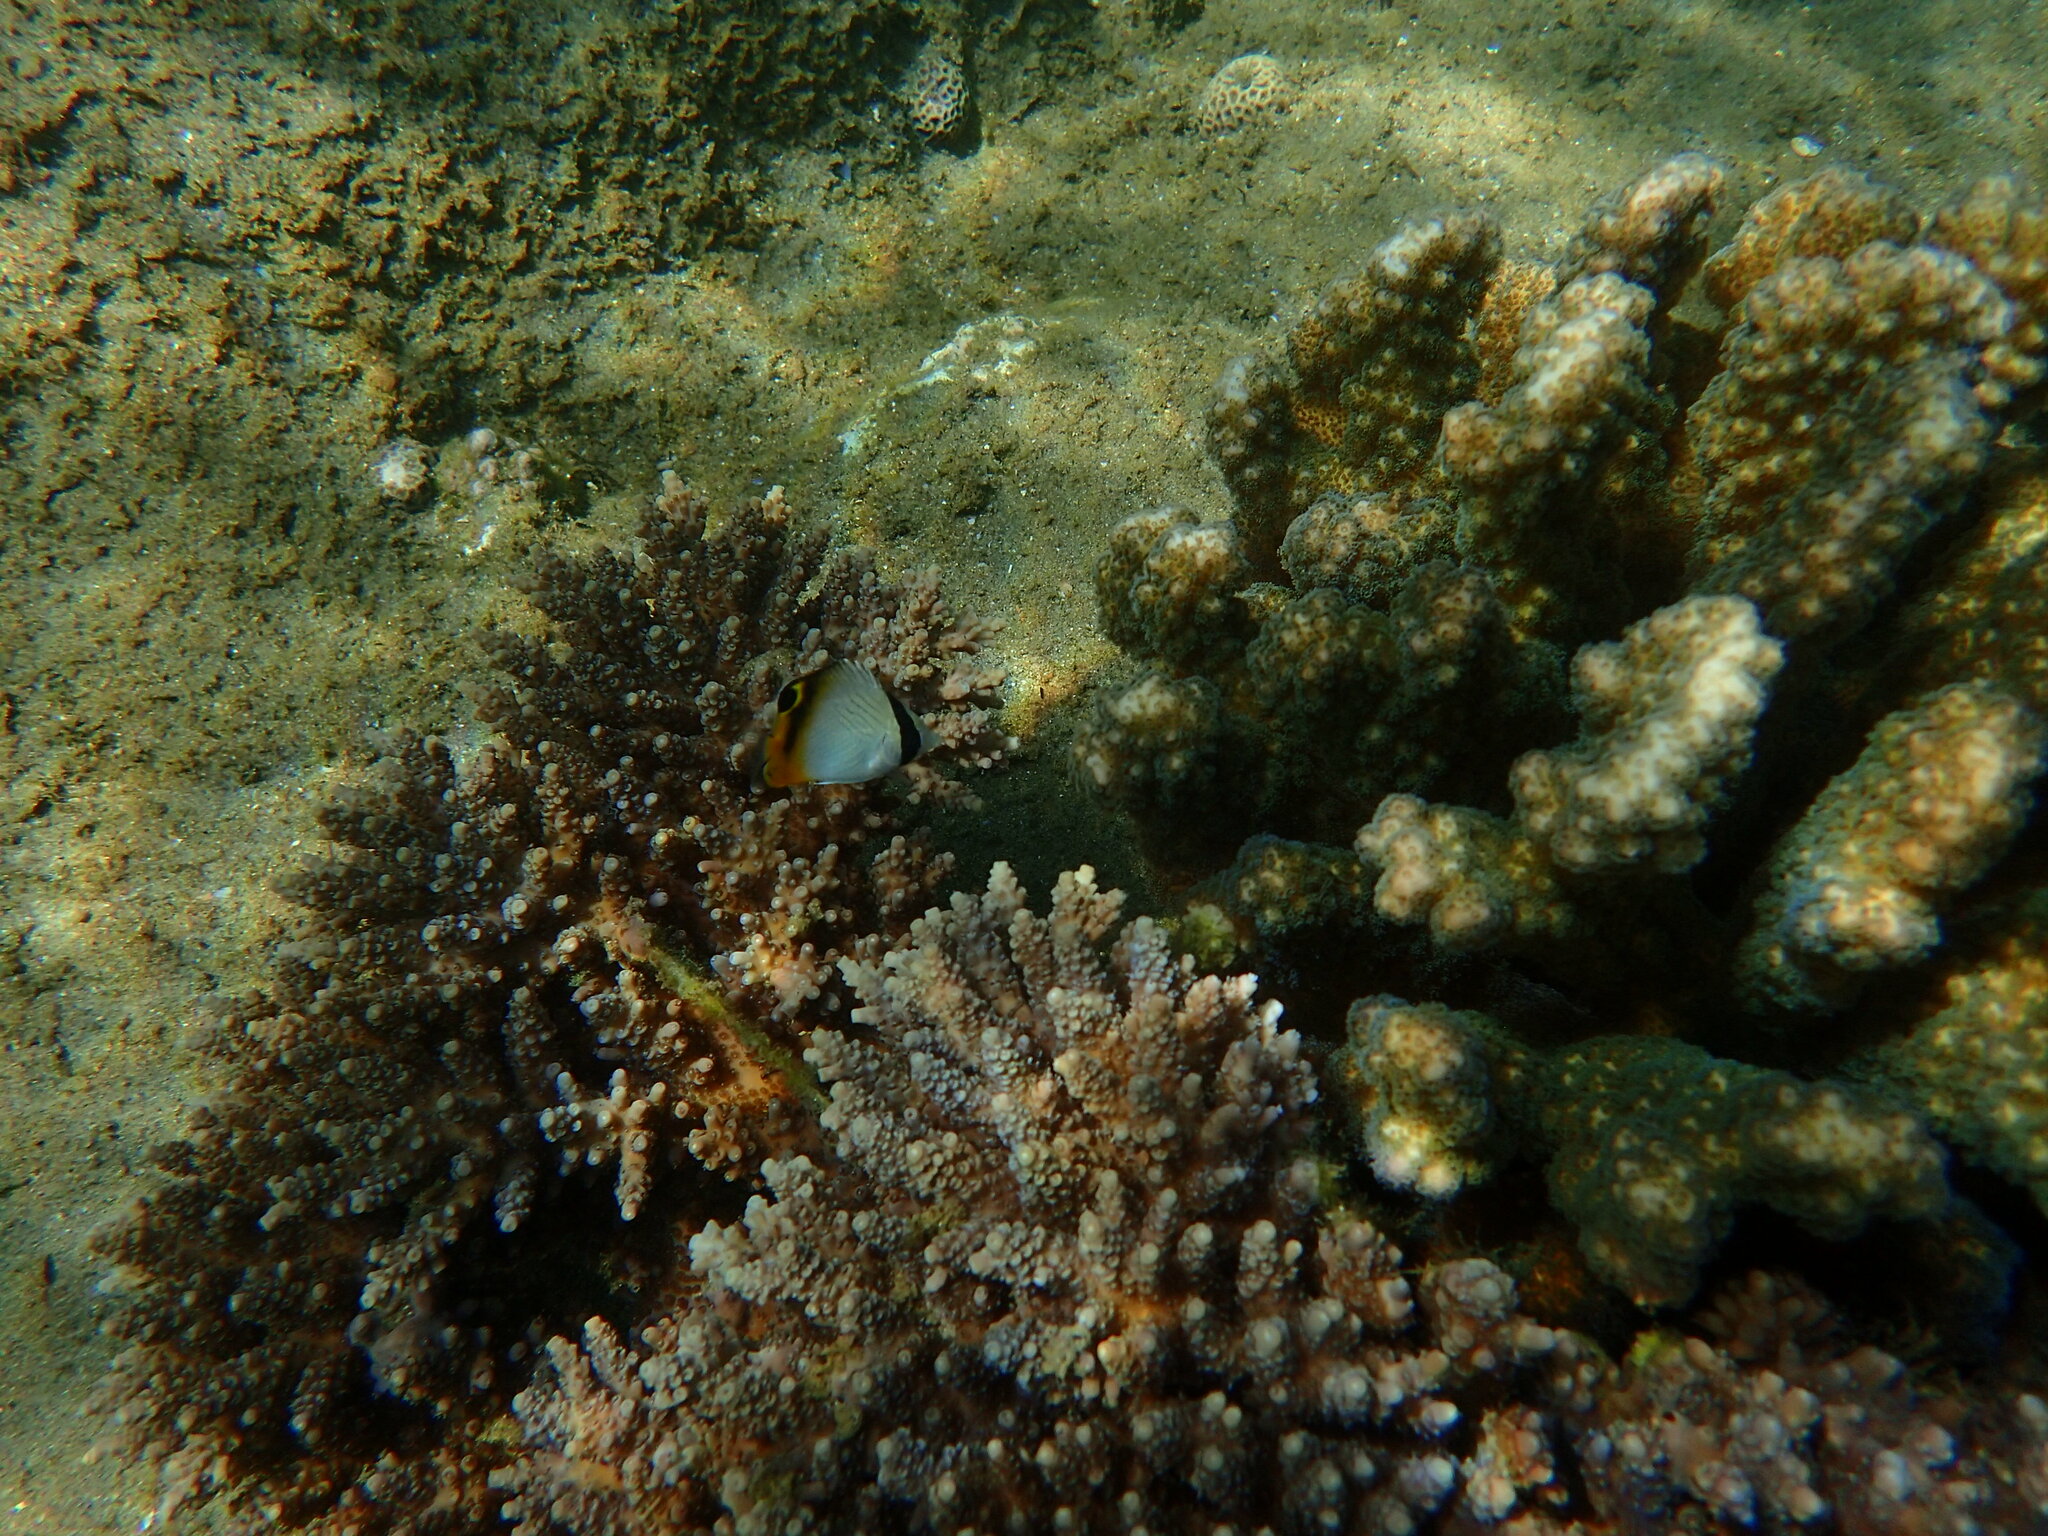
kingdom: Animalia
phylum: Chordata
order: Perciformes
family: Chaetodontidae
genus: Chaetodon
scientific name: Chaetodon vagabundus
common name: Vagabond butterflyfish
